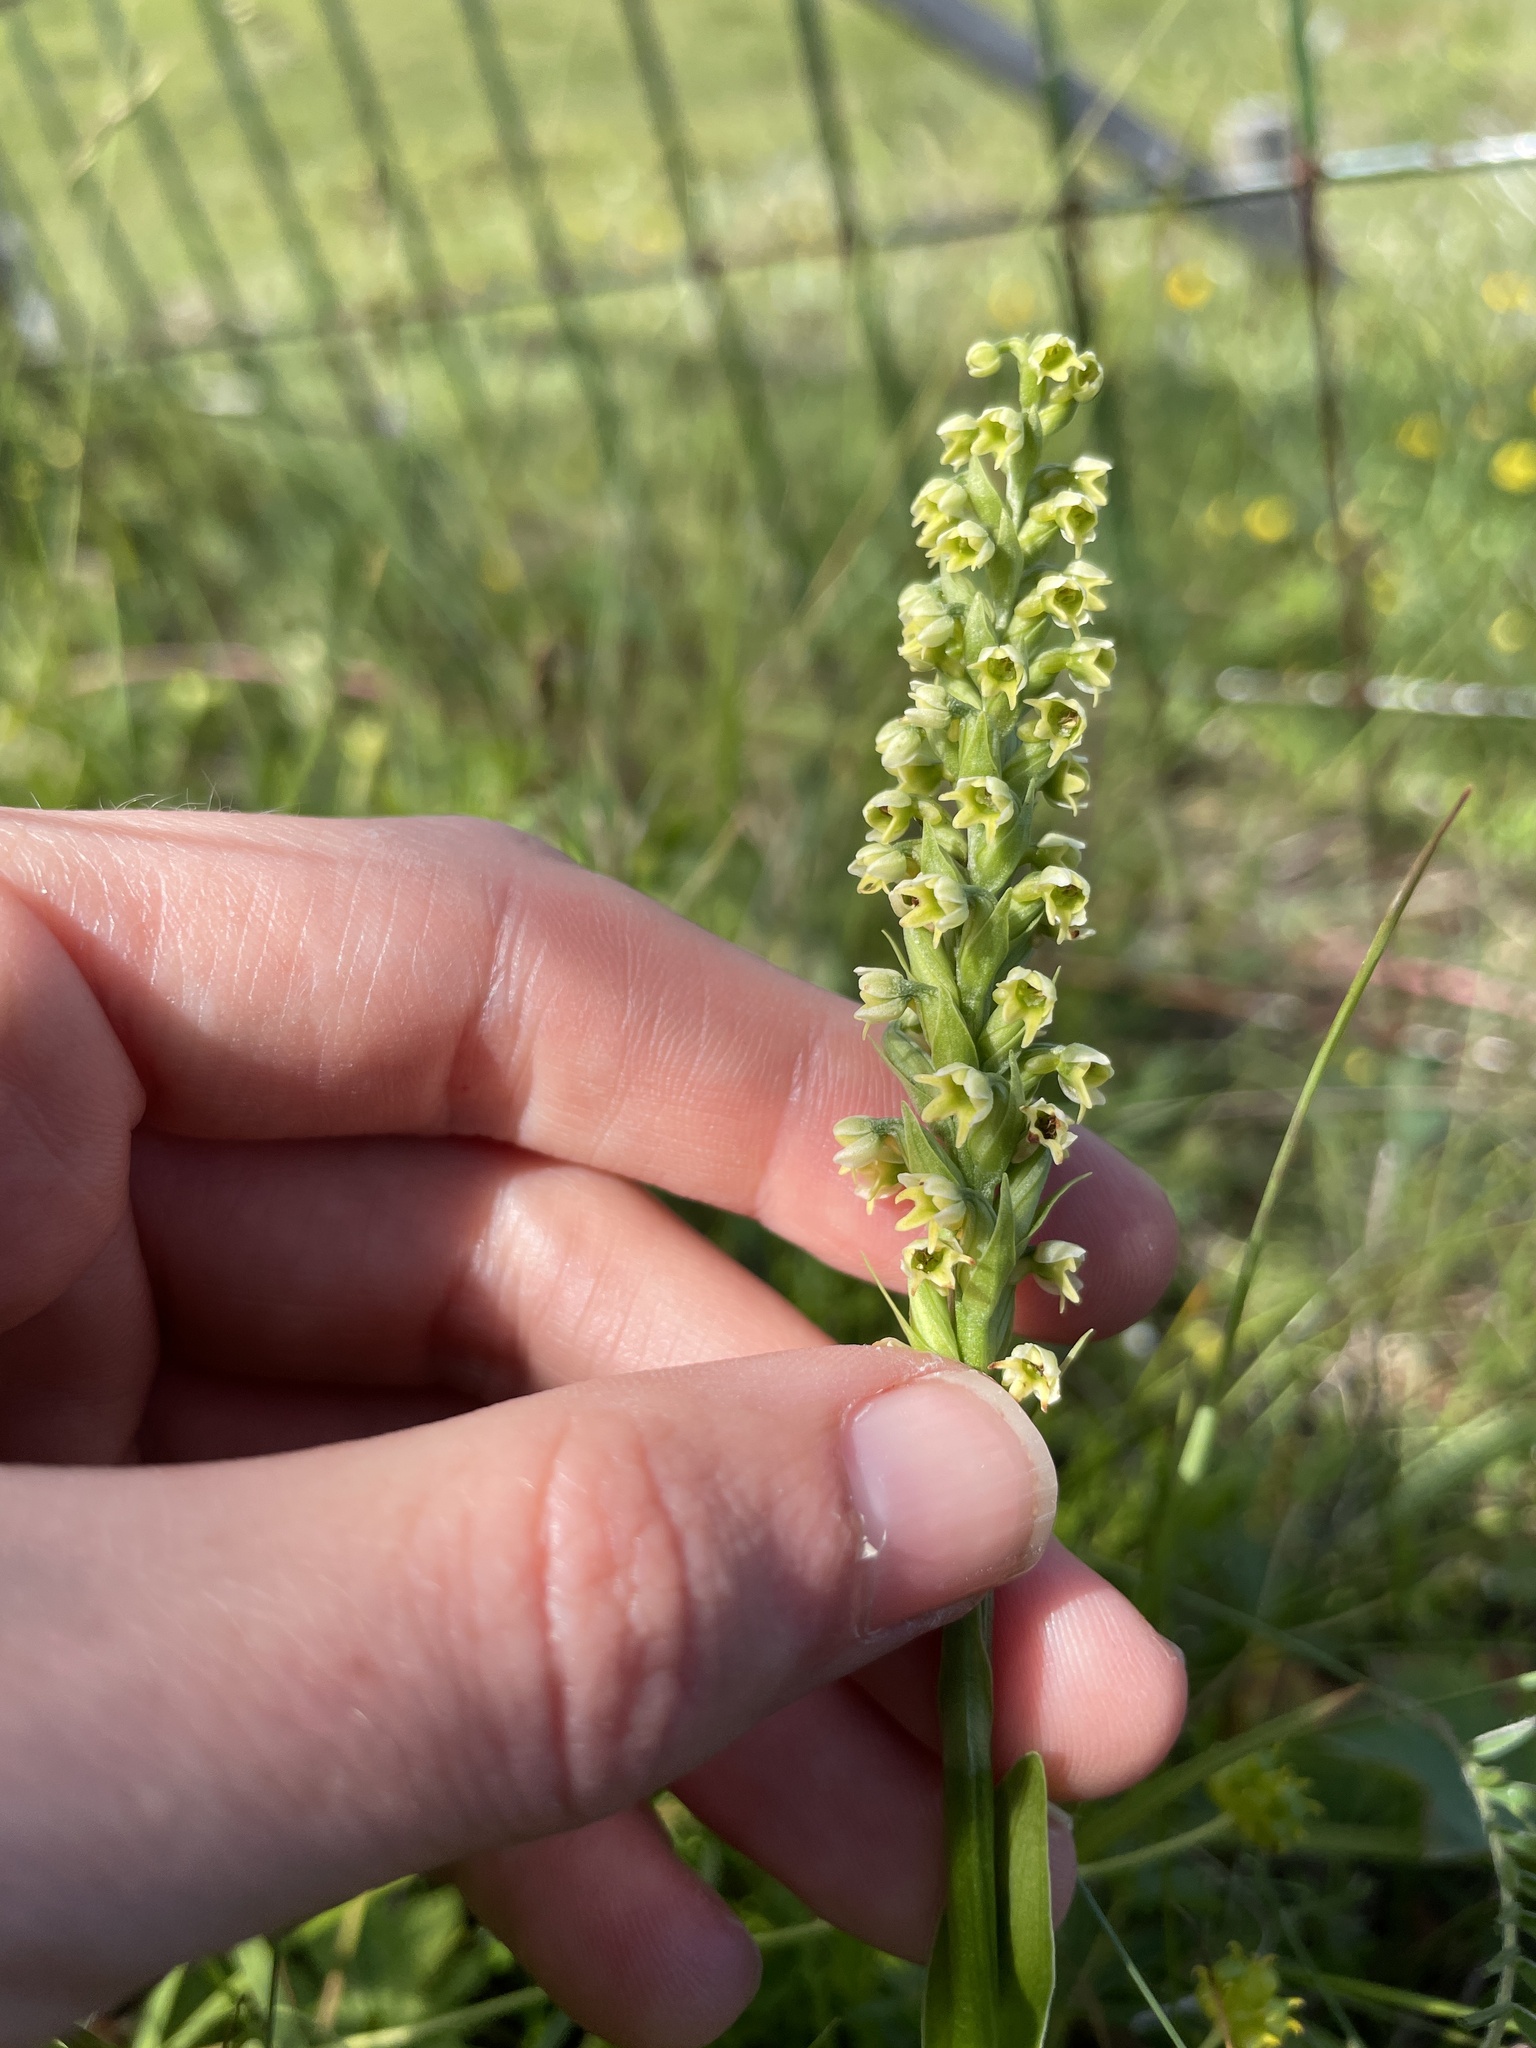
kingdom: Plantae
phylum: Tracheophyta
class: Liliopsida
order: Asparagales
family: Orchidaceae
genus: Pseudorchis
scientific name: Pseudorchis albida
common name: Small-white orchid
